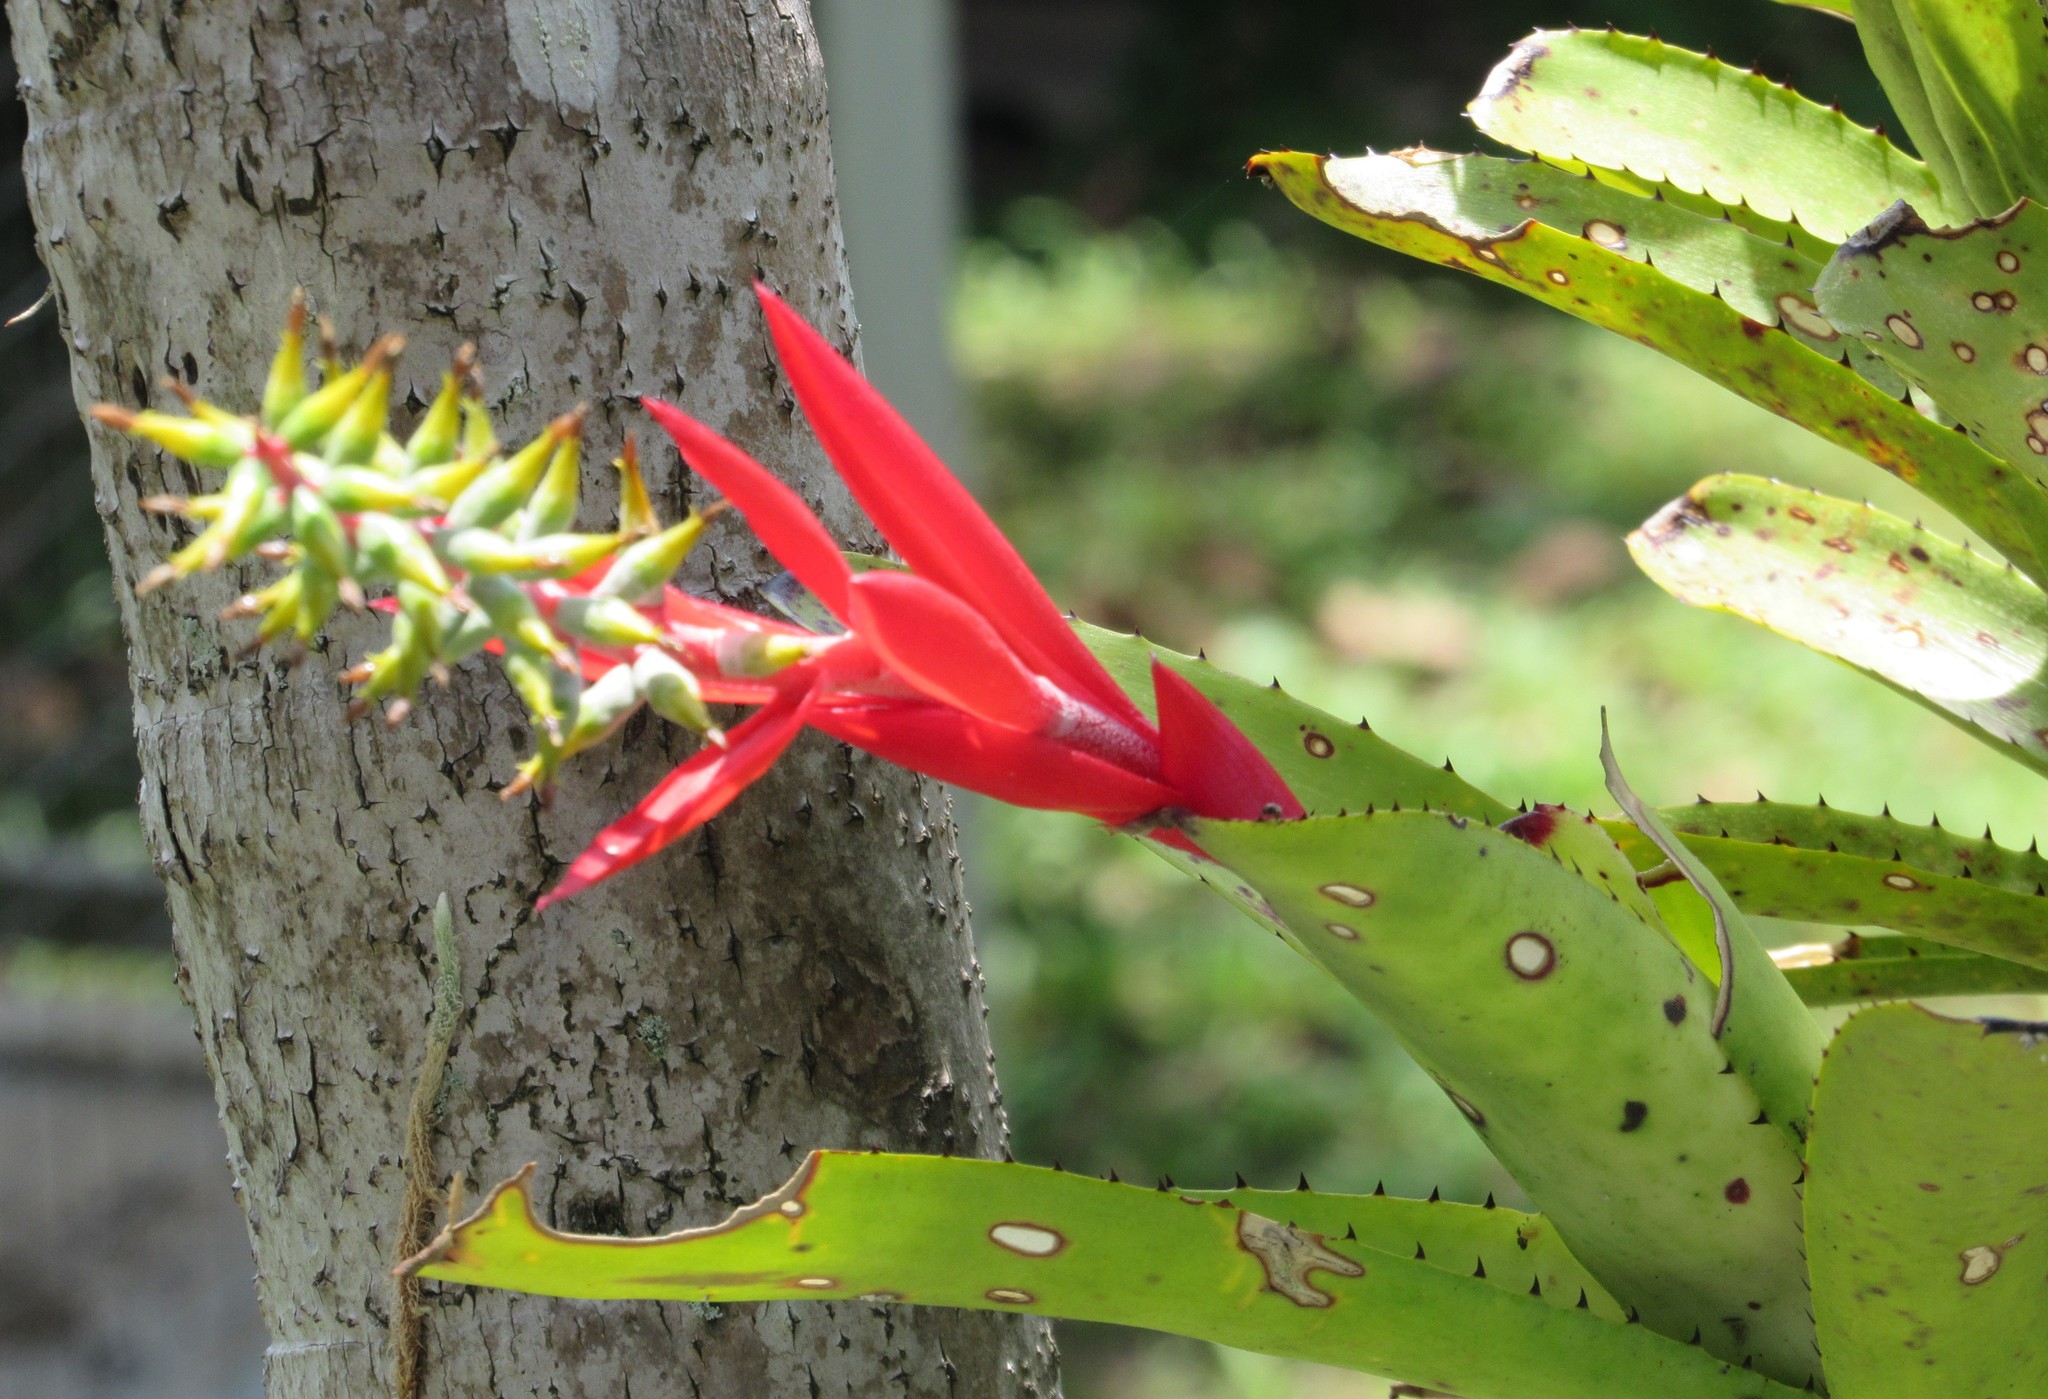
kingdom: Plantae
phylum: Tracheophyta
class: Liliopsida
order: Poales
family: Bromeliaceae
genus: Aechmea
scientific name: Aechmea nudicaulis
